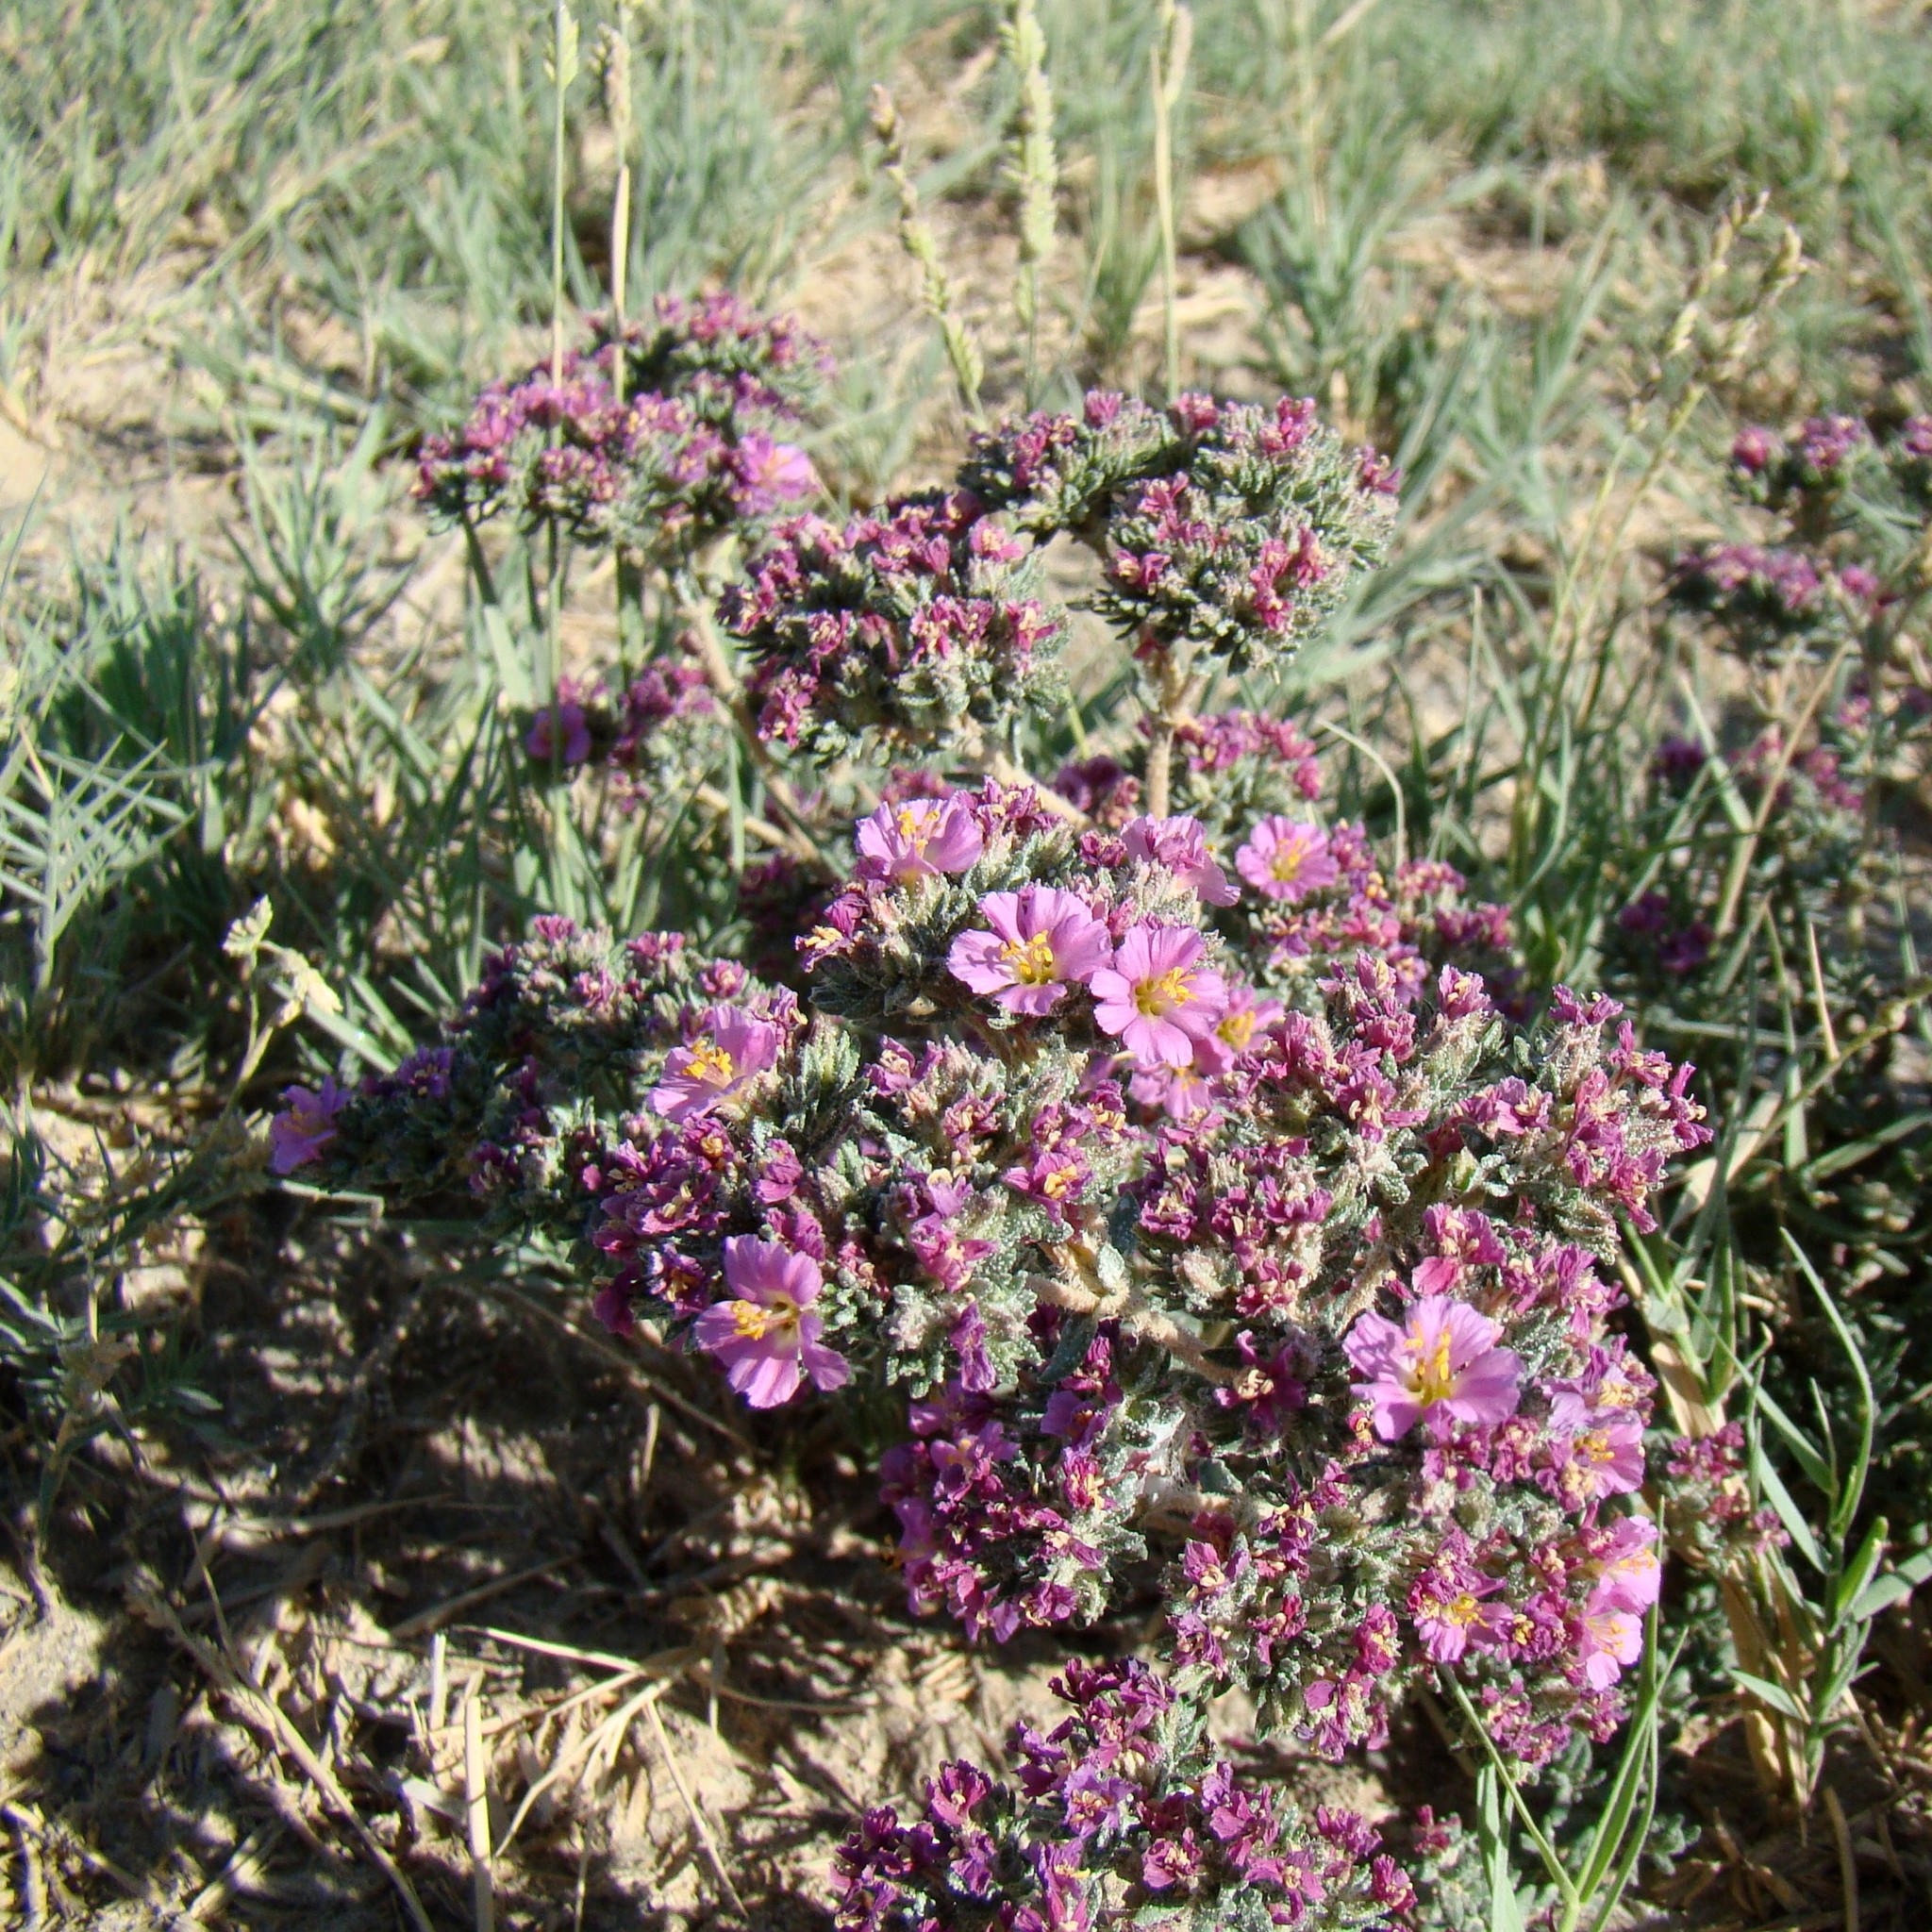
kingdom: Plantae
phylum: Tracheophyta
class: Magnoliopsida
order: Caryophyllales
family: Frankeniaceae
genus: Frankenia
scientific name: Frankenia hirsuta
